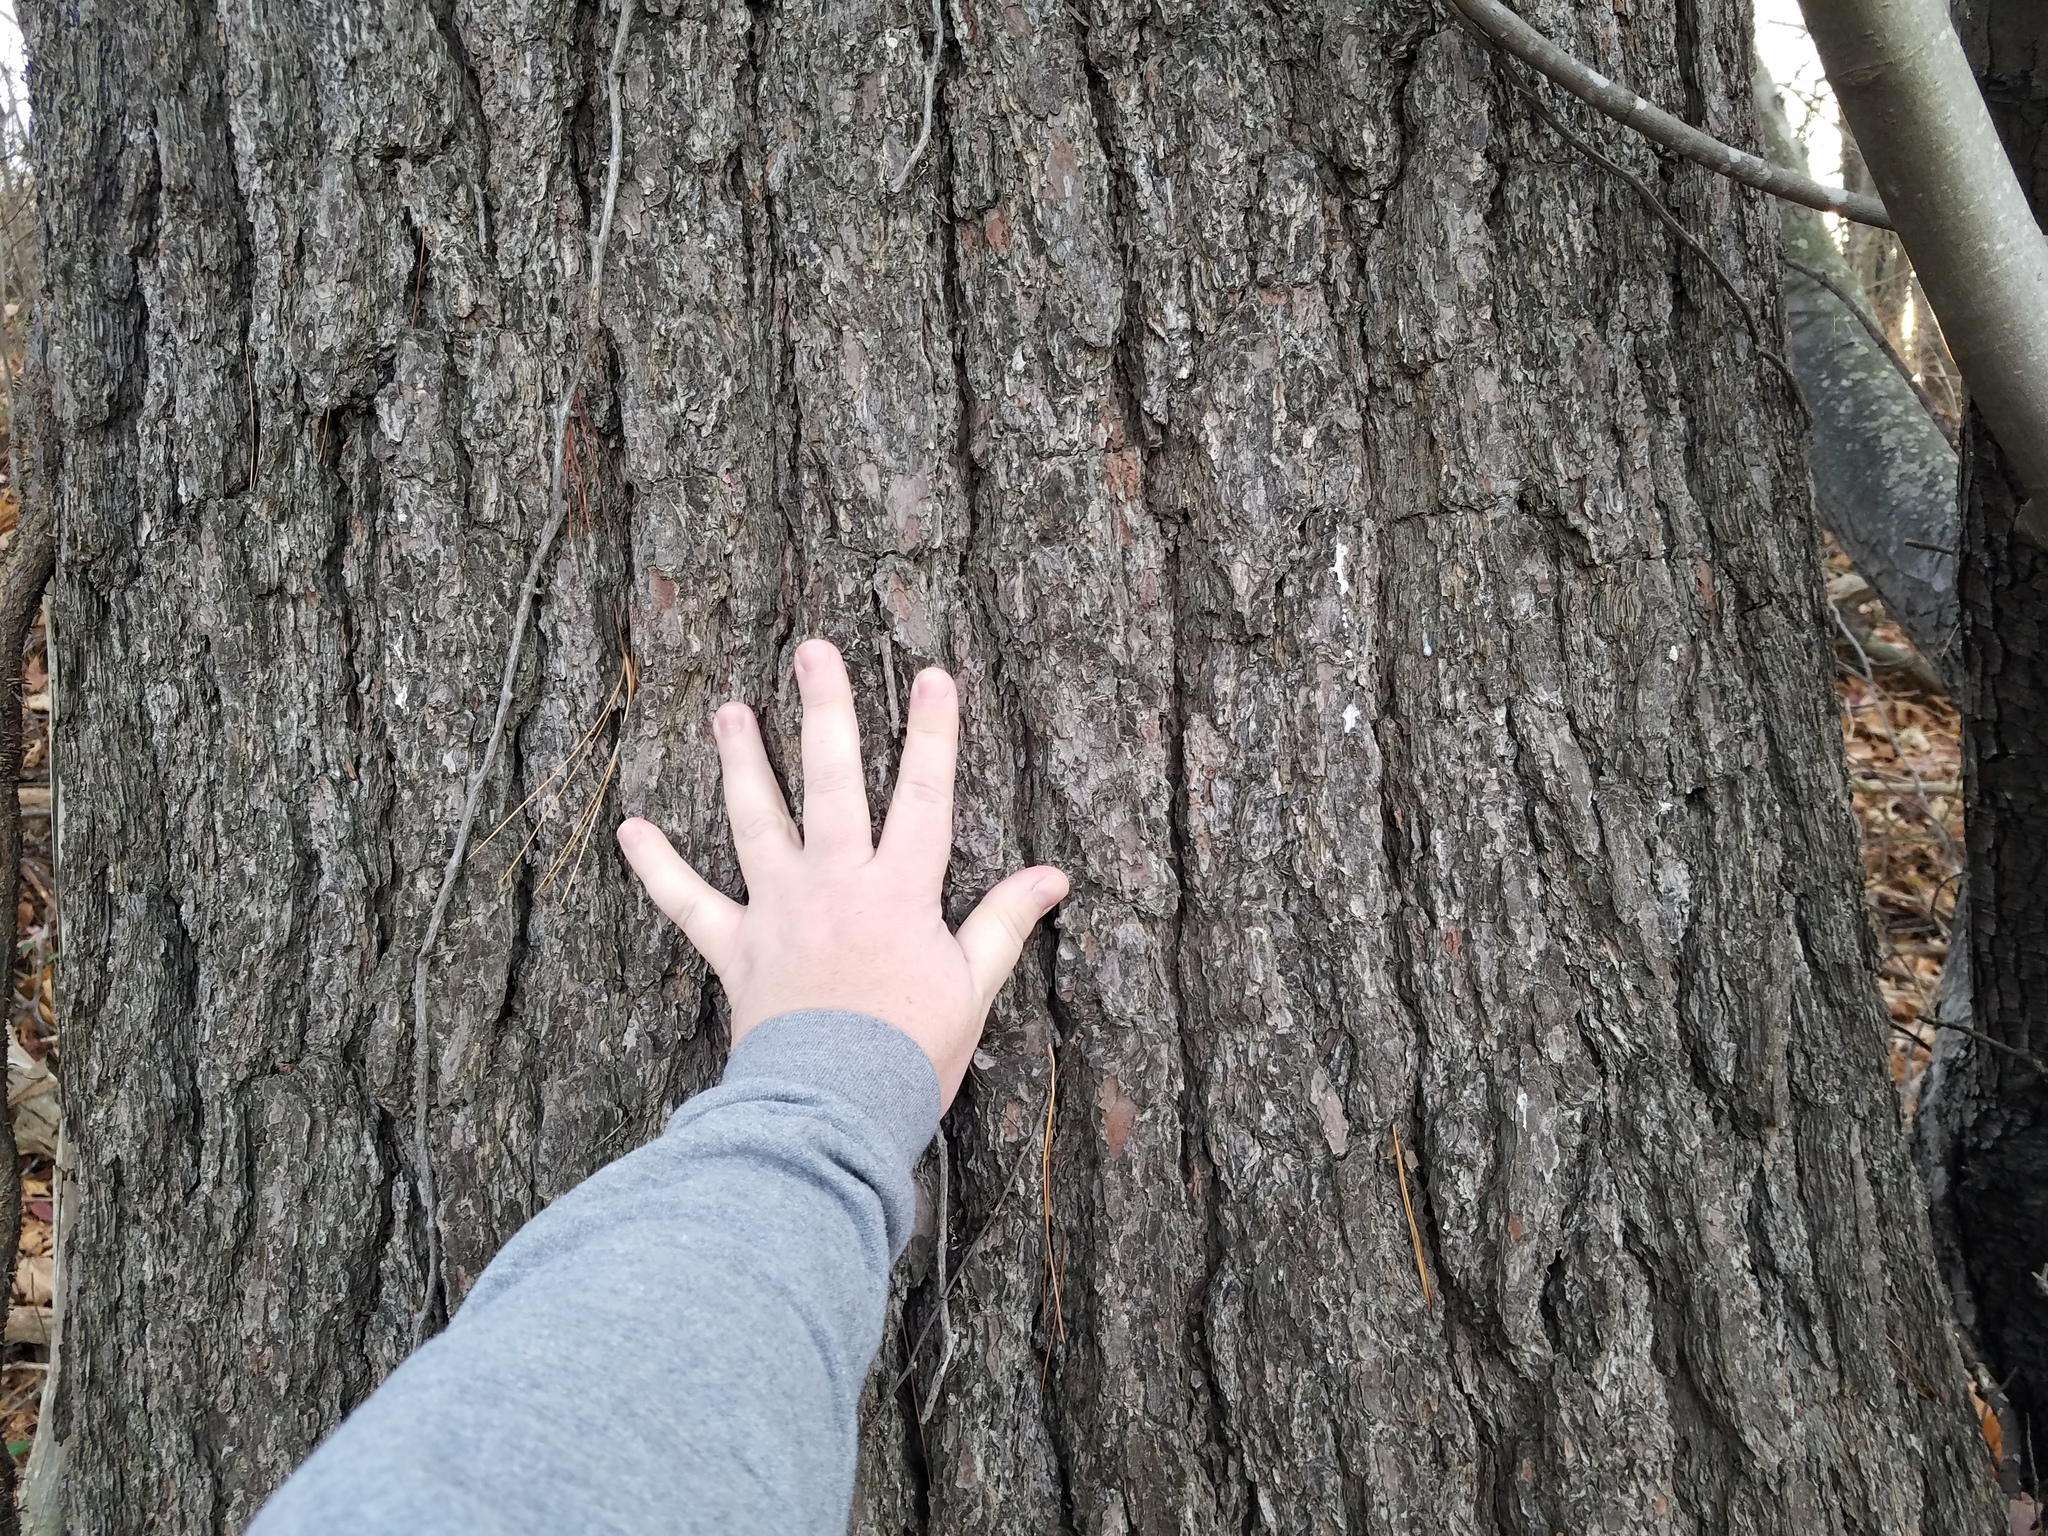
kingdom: Plantae
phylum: Tracheophyta
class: Pinopsida
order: Pinales
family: Pinaceae
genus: Pinus
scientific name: Pinus strobus
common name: Weymouth pine
